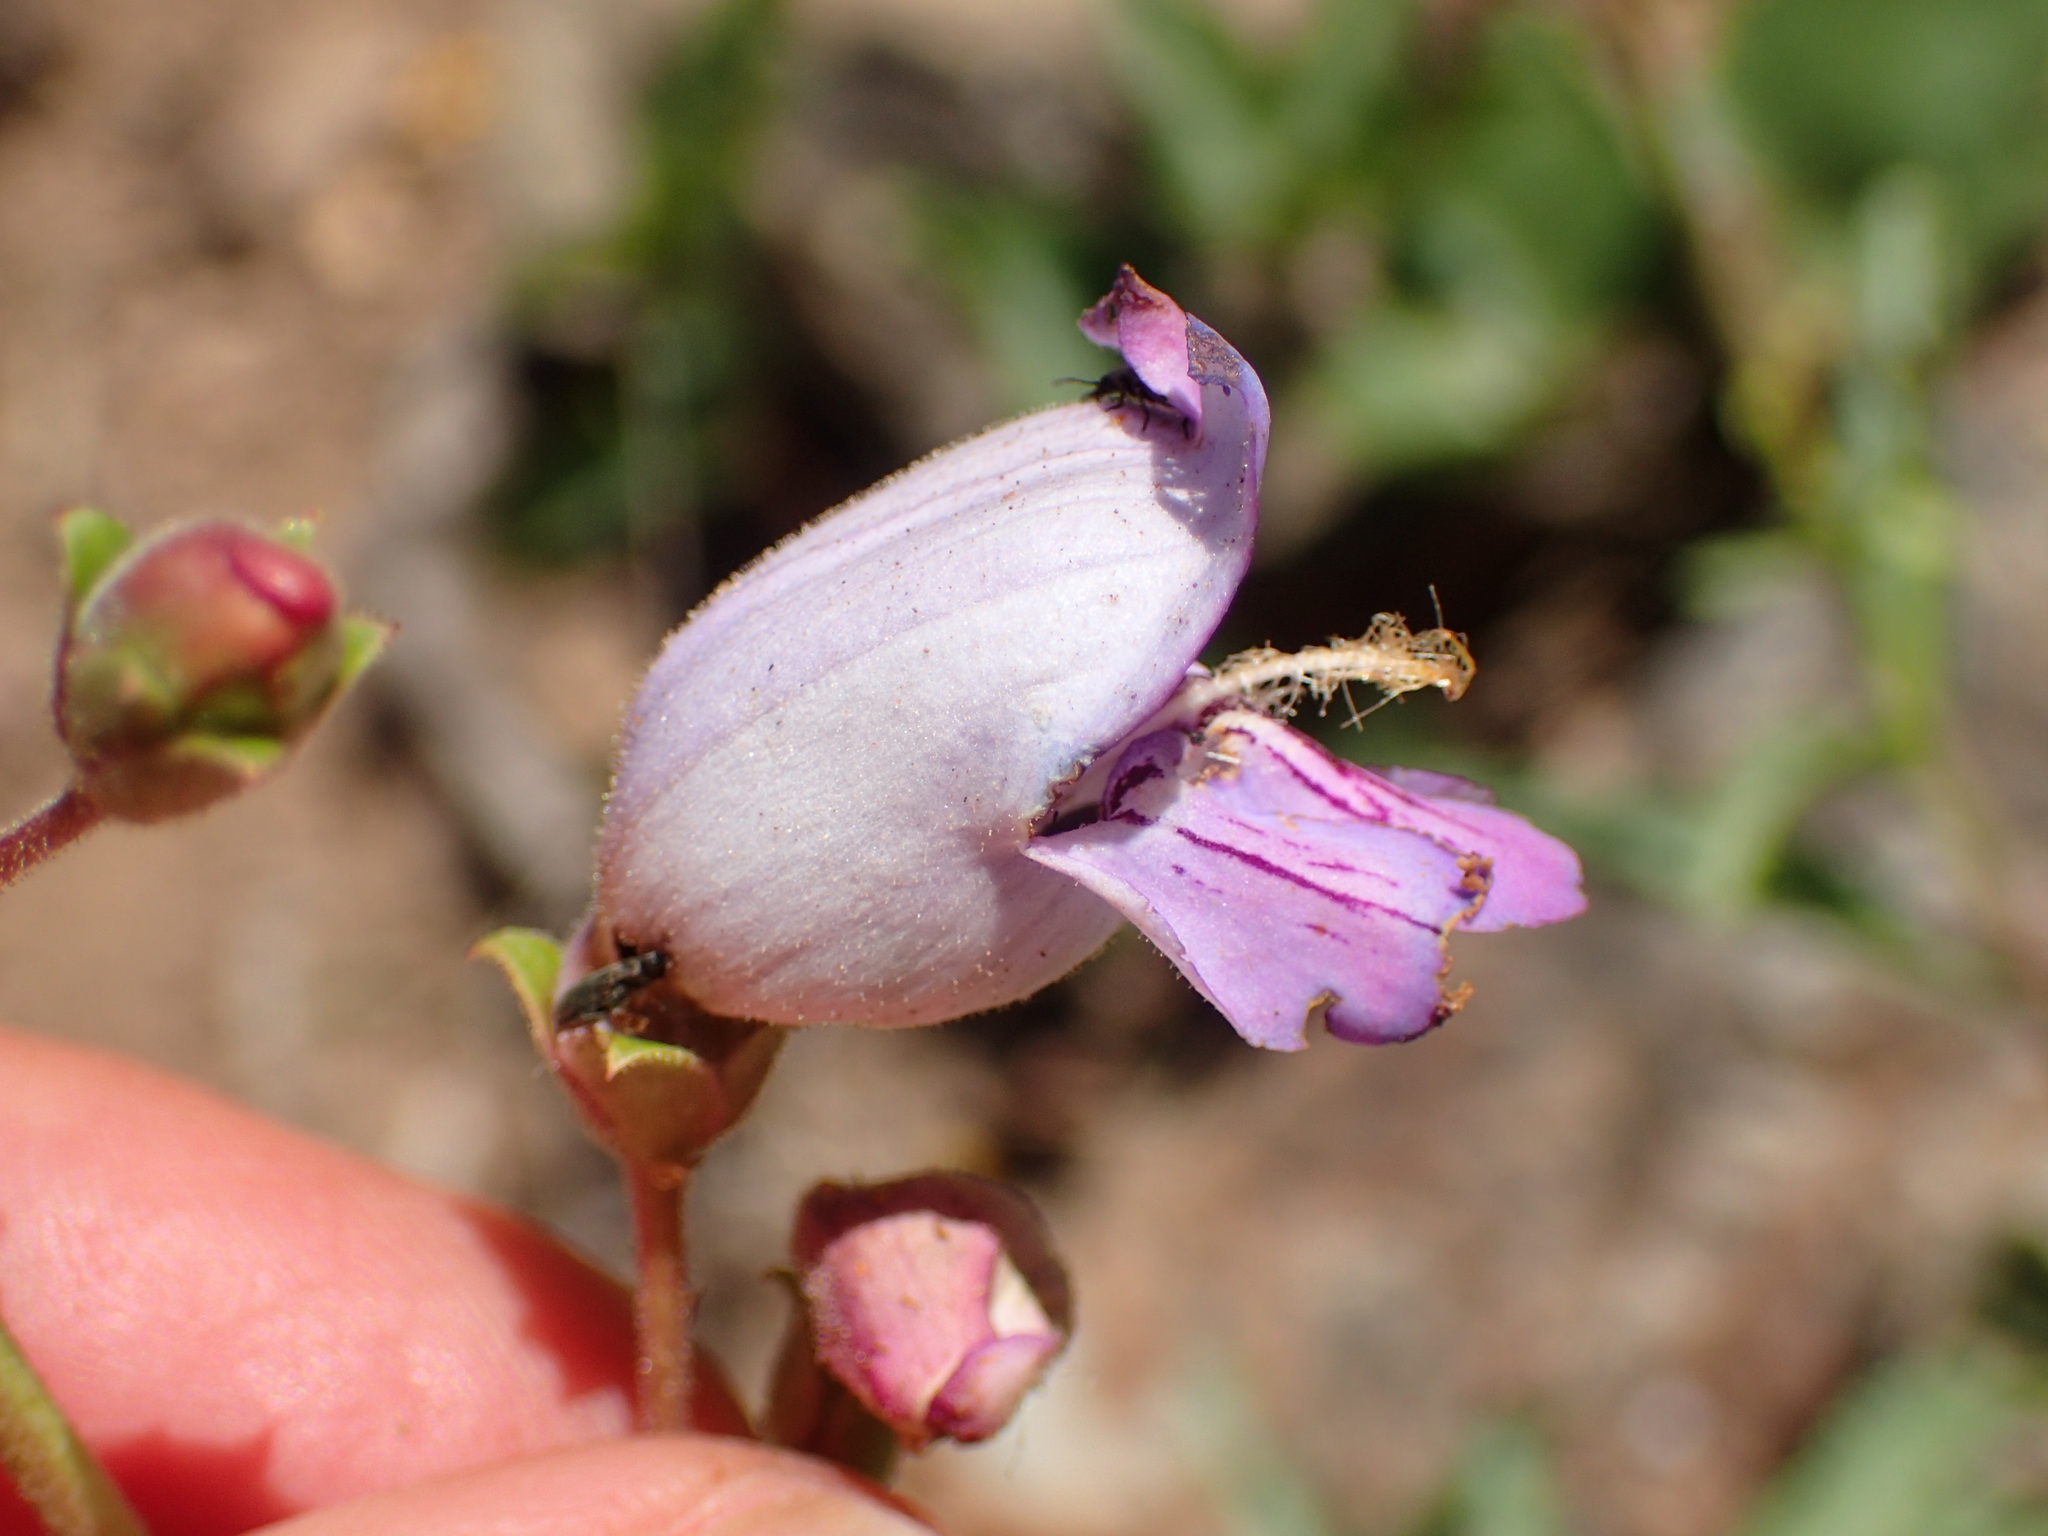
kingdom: Plantae
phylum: Tracheophyta
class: Magnoliopsida
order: Lamiales
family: Plantaginaceae
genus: Penstemon
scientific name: Penstemon grinnellii
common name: Grinnell's beardtongue
